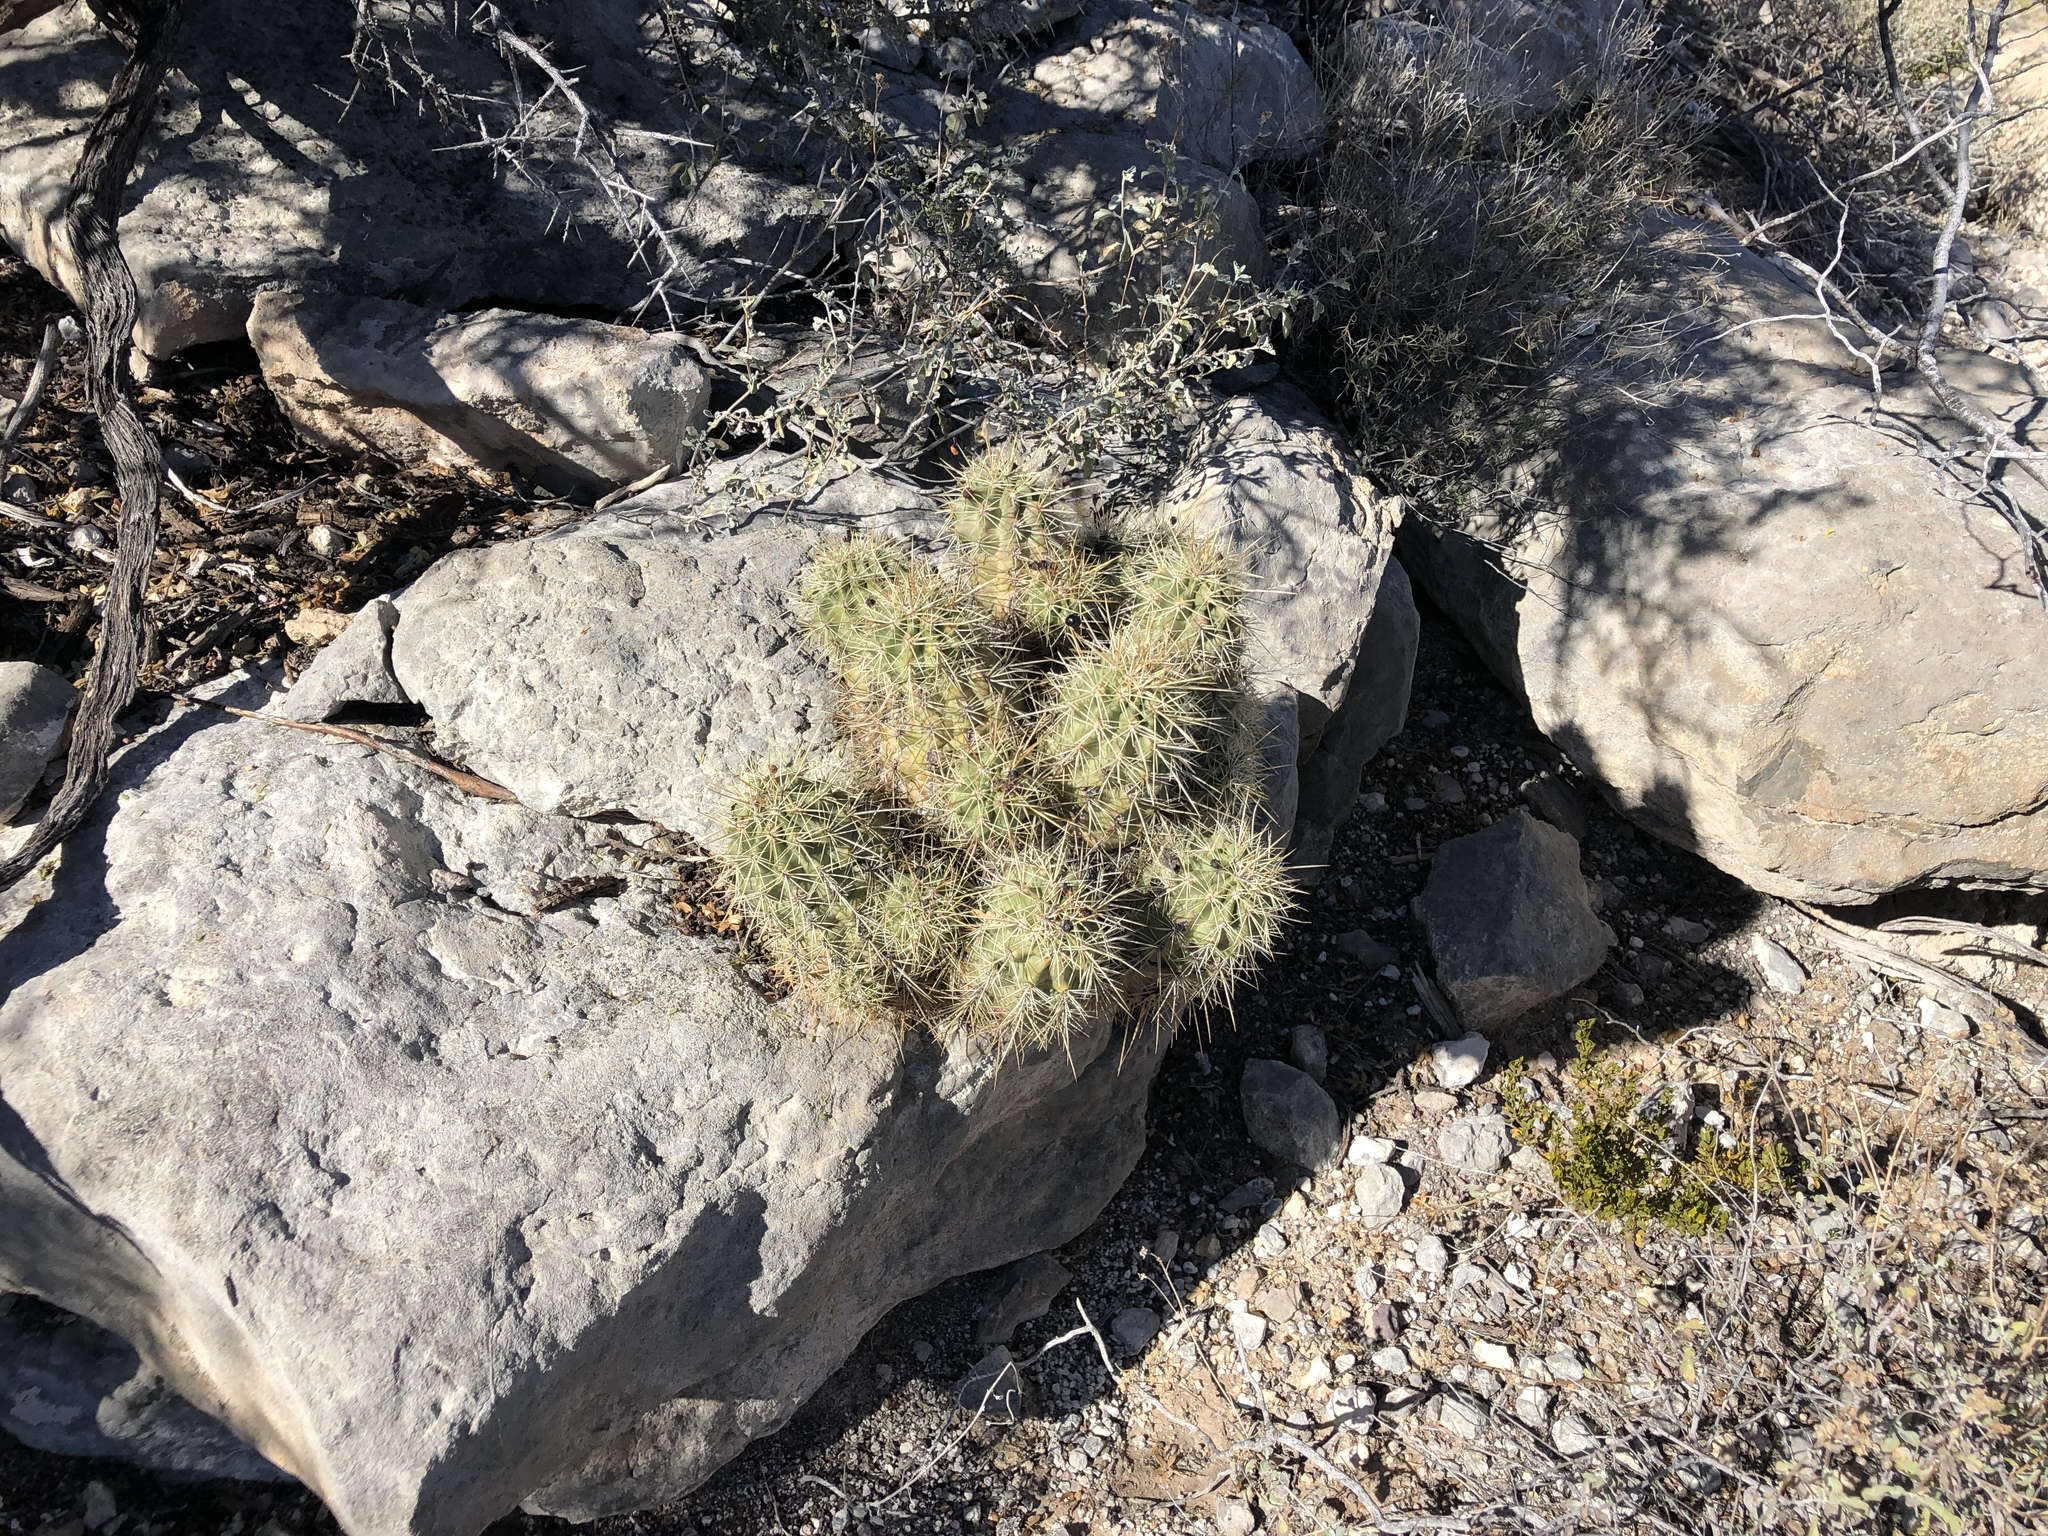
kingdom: Plantae
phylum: Tracheophyta
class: Magnoliopsida
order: Caryophyllales
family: Cactaceae
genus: Echinocereus
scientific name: Echinocereus coccineus
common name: Scarlet hedgehog cactus
